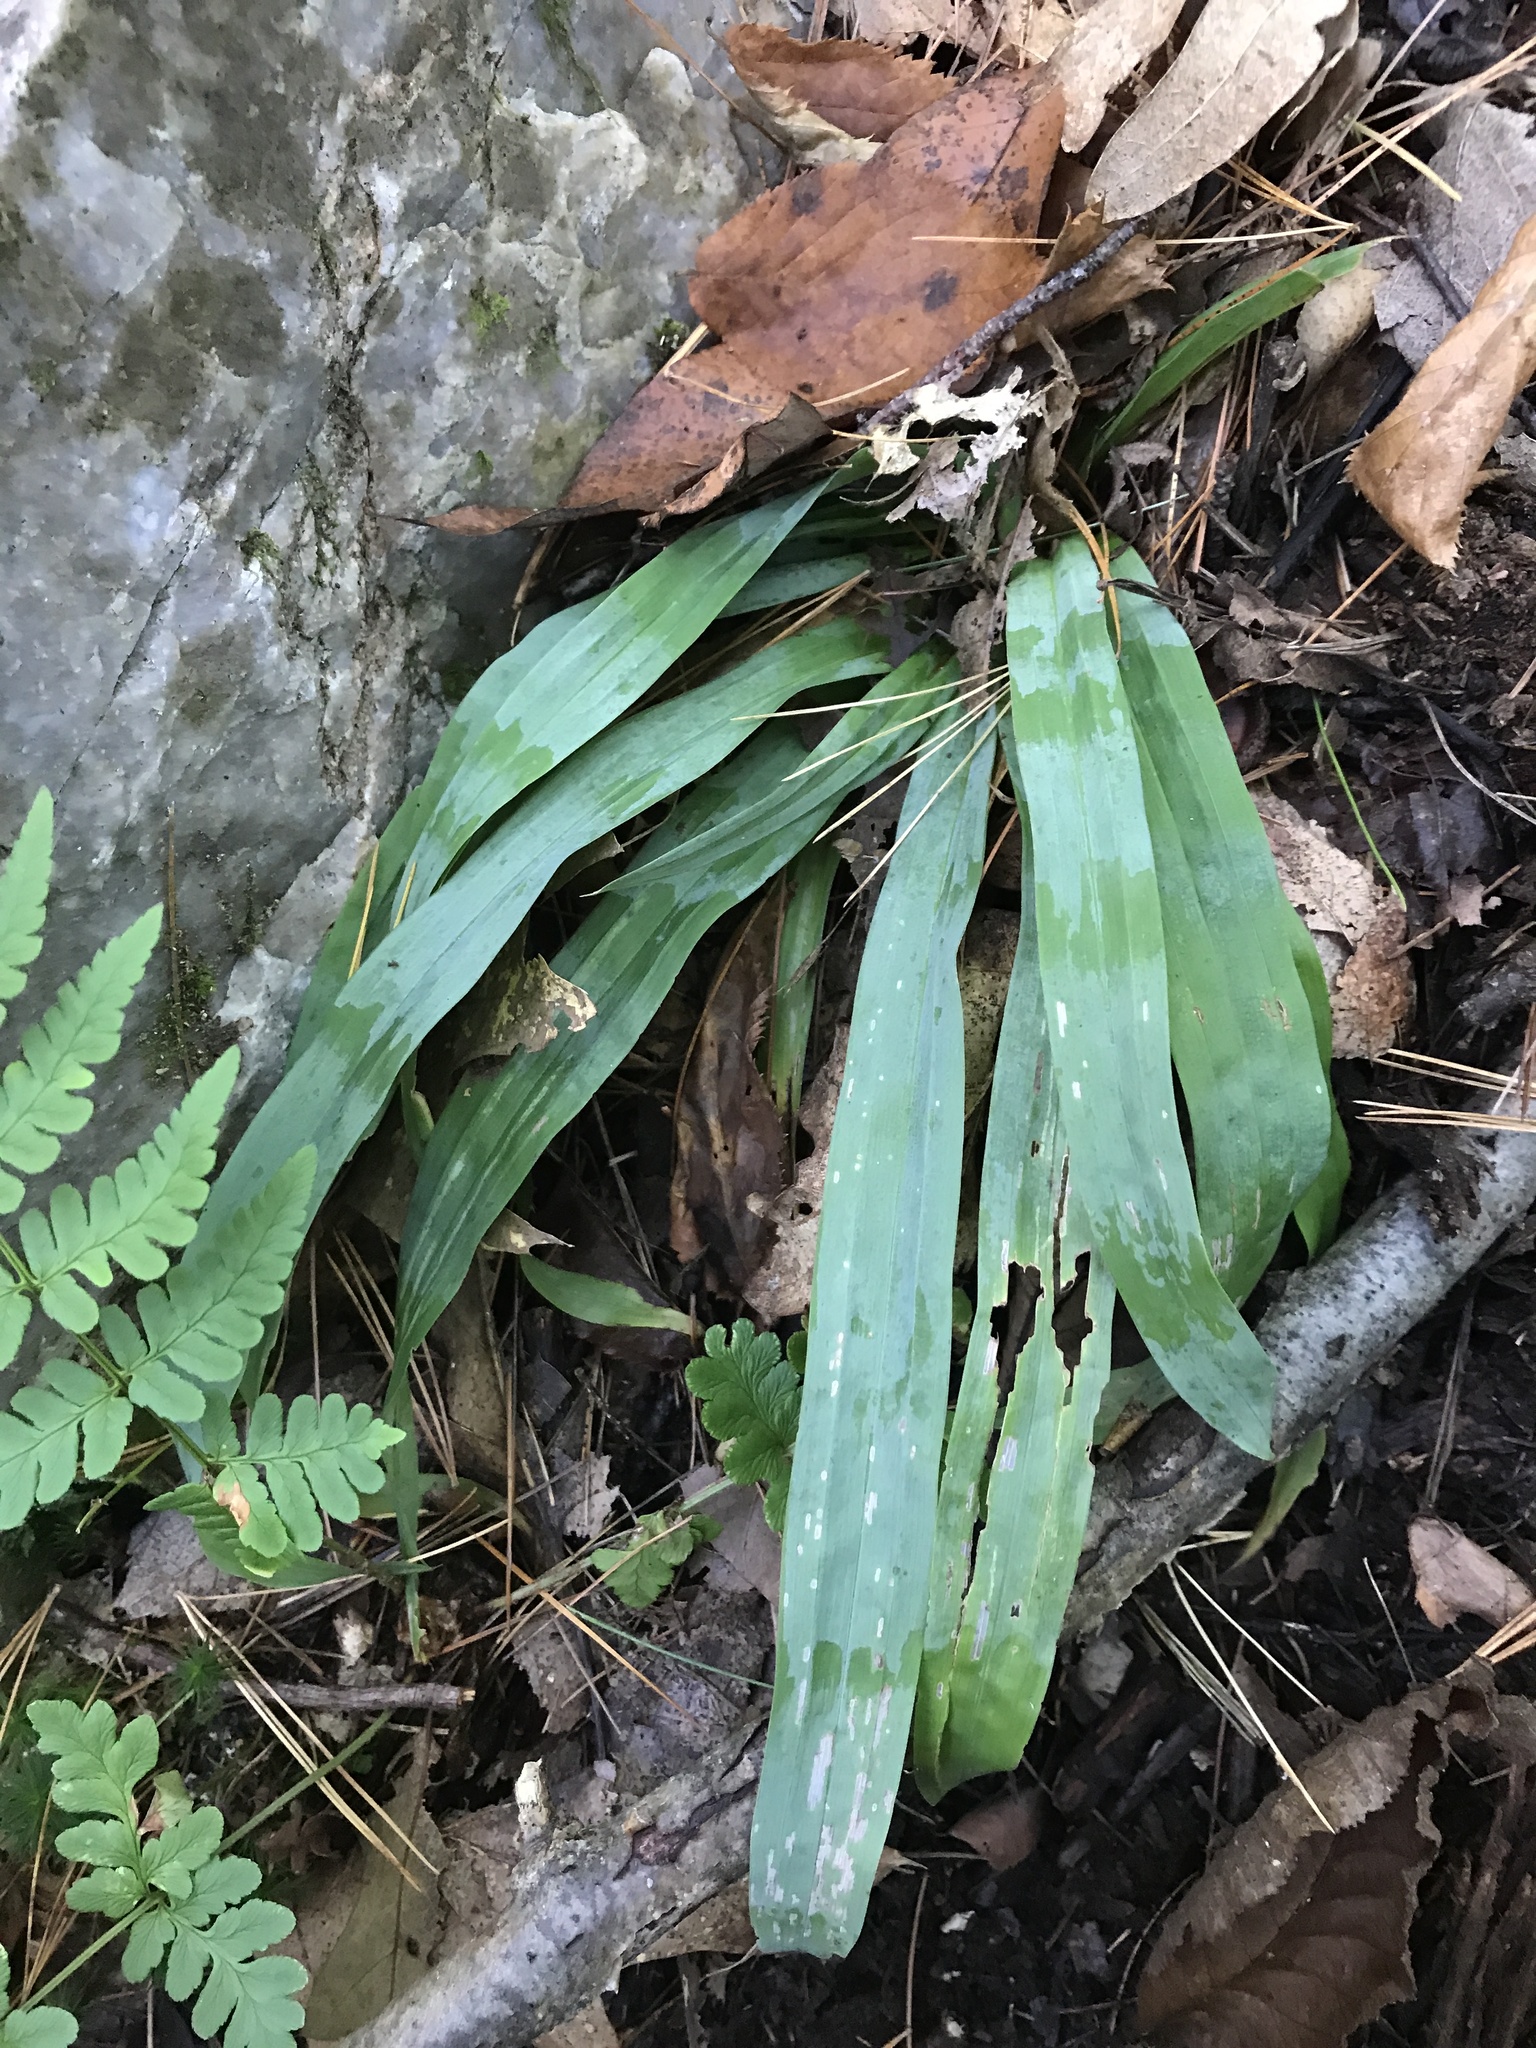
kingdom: Plantae
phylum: Tracheophyta
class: Liliopsida
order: Poales
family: Cyperaceae
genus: Carex
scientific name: Carex platyphylla
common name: Broad-leaved sedge
